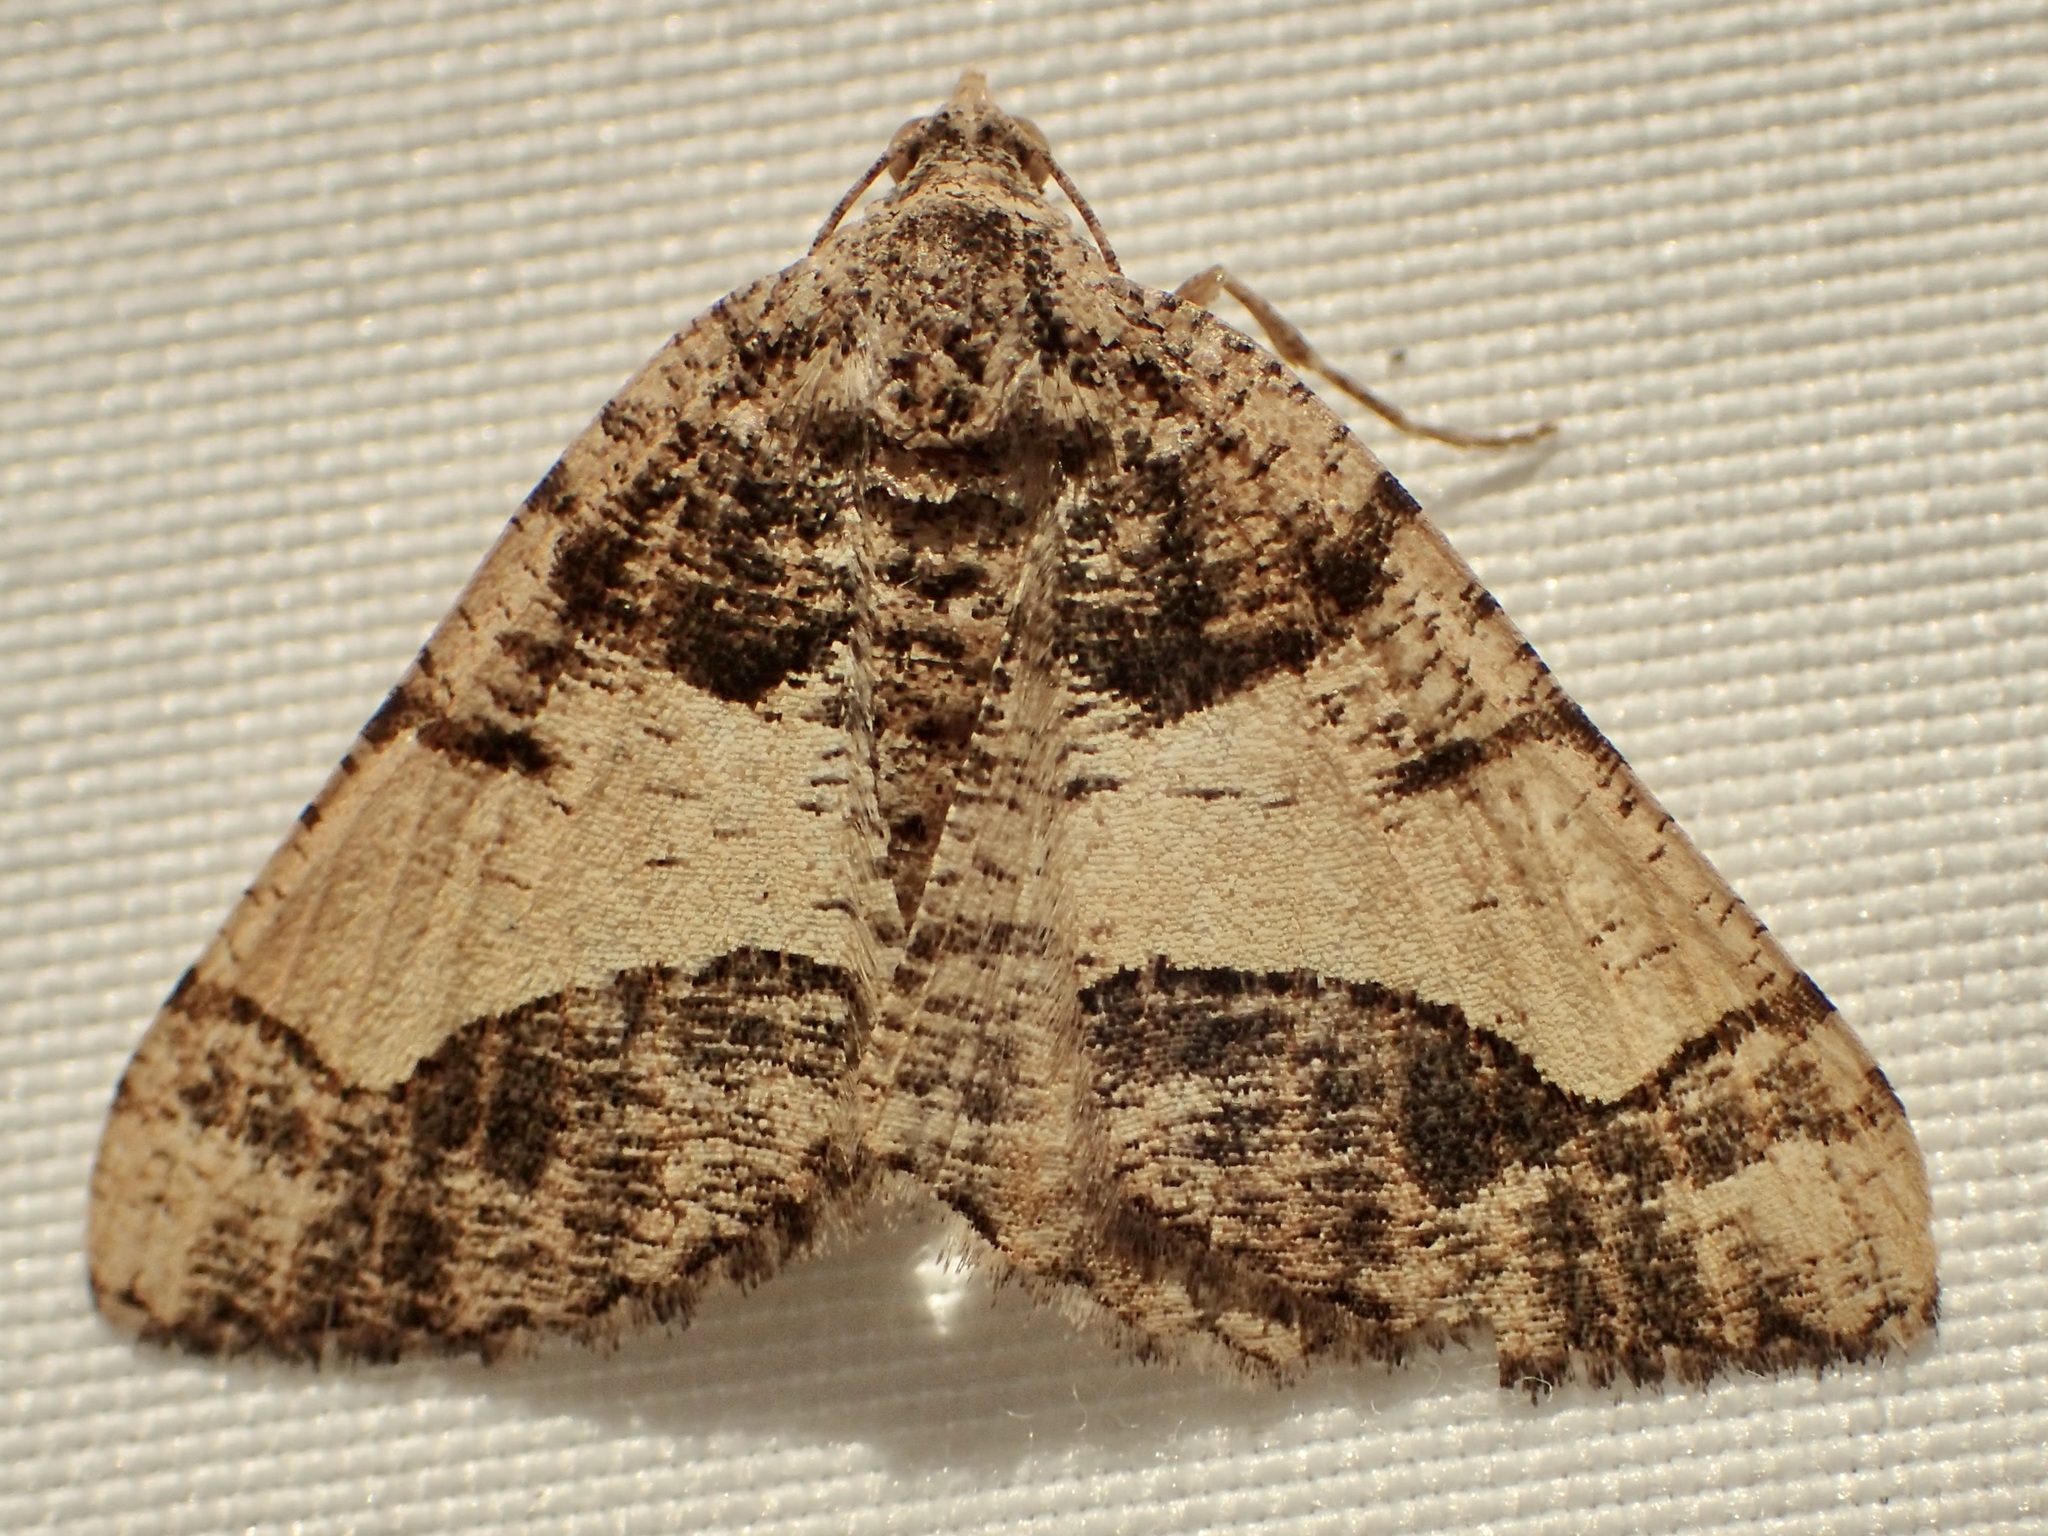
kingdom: Animalia
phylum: Arthropoda
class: Insecta
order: Lepidoptera
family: Geometridae
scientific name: Geometridae
